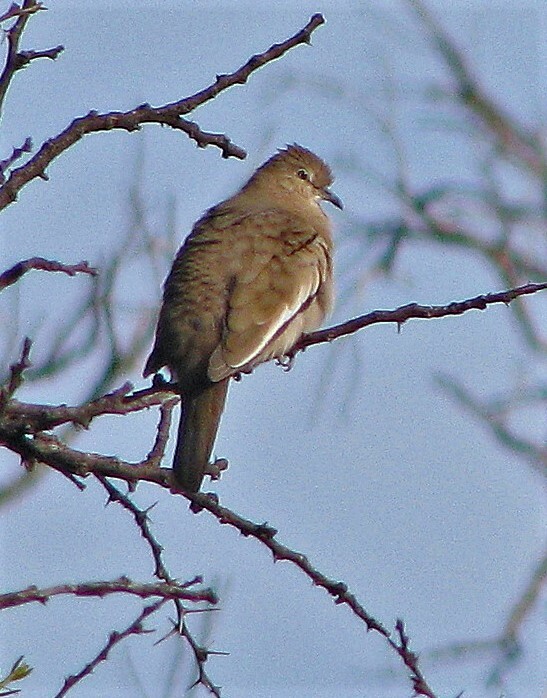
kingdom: Animalia
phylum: Chordata
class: Aves
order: Columbiformes
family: Columbidae
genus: Columbina
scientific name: Columbina picui
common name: Picui ground dove
